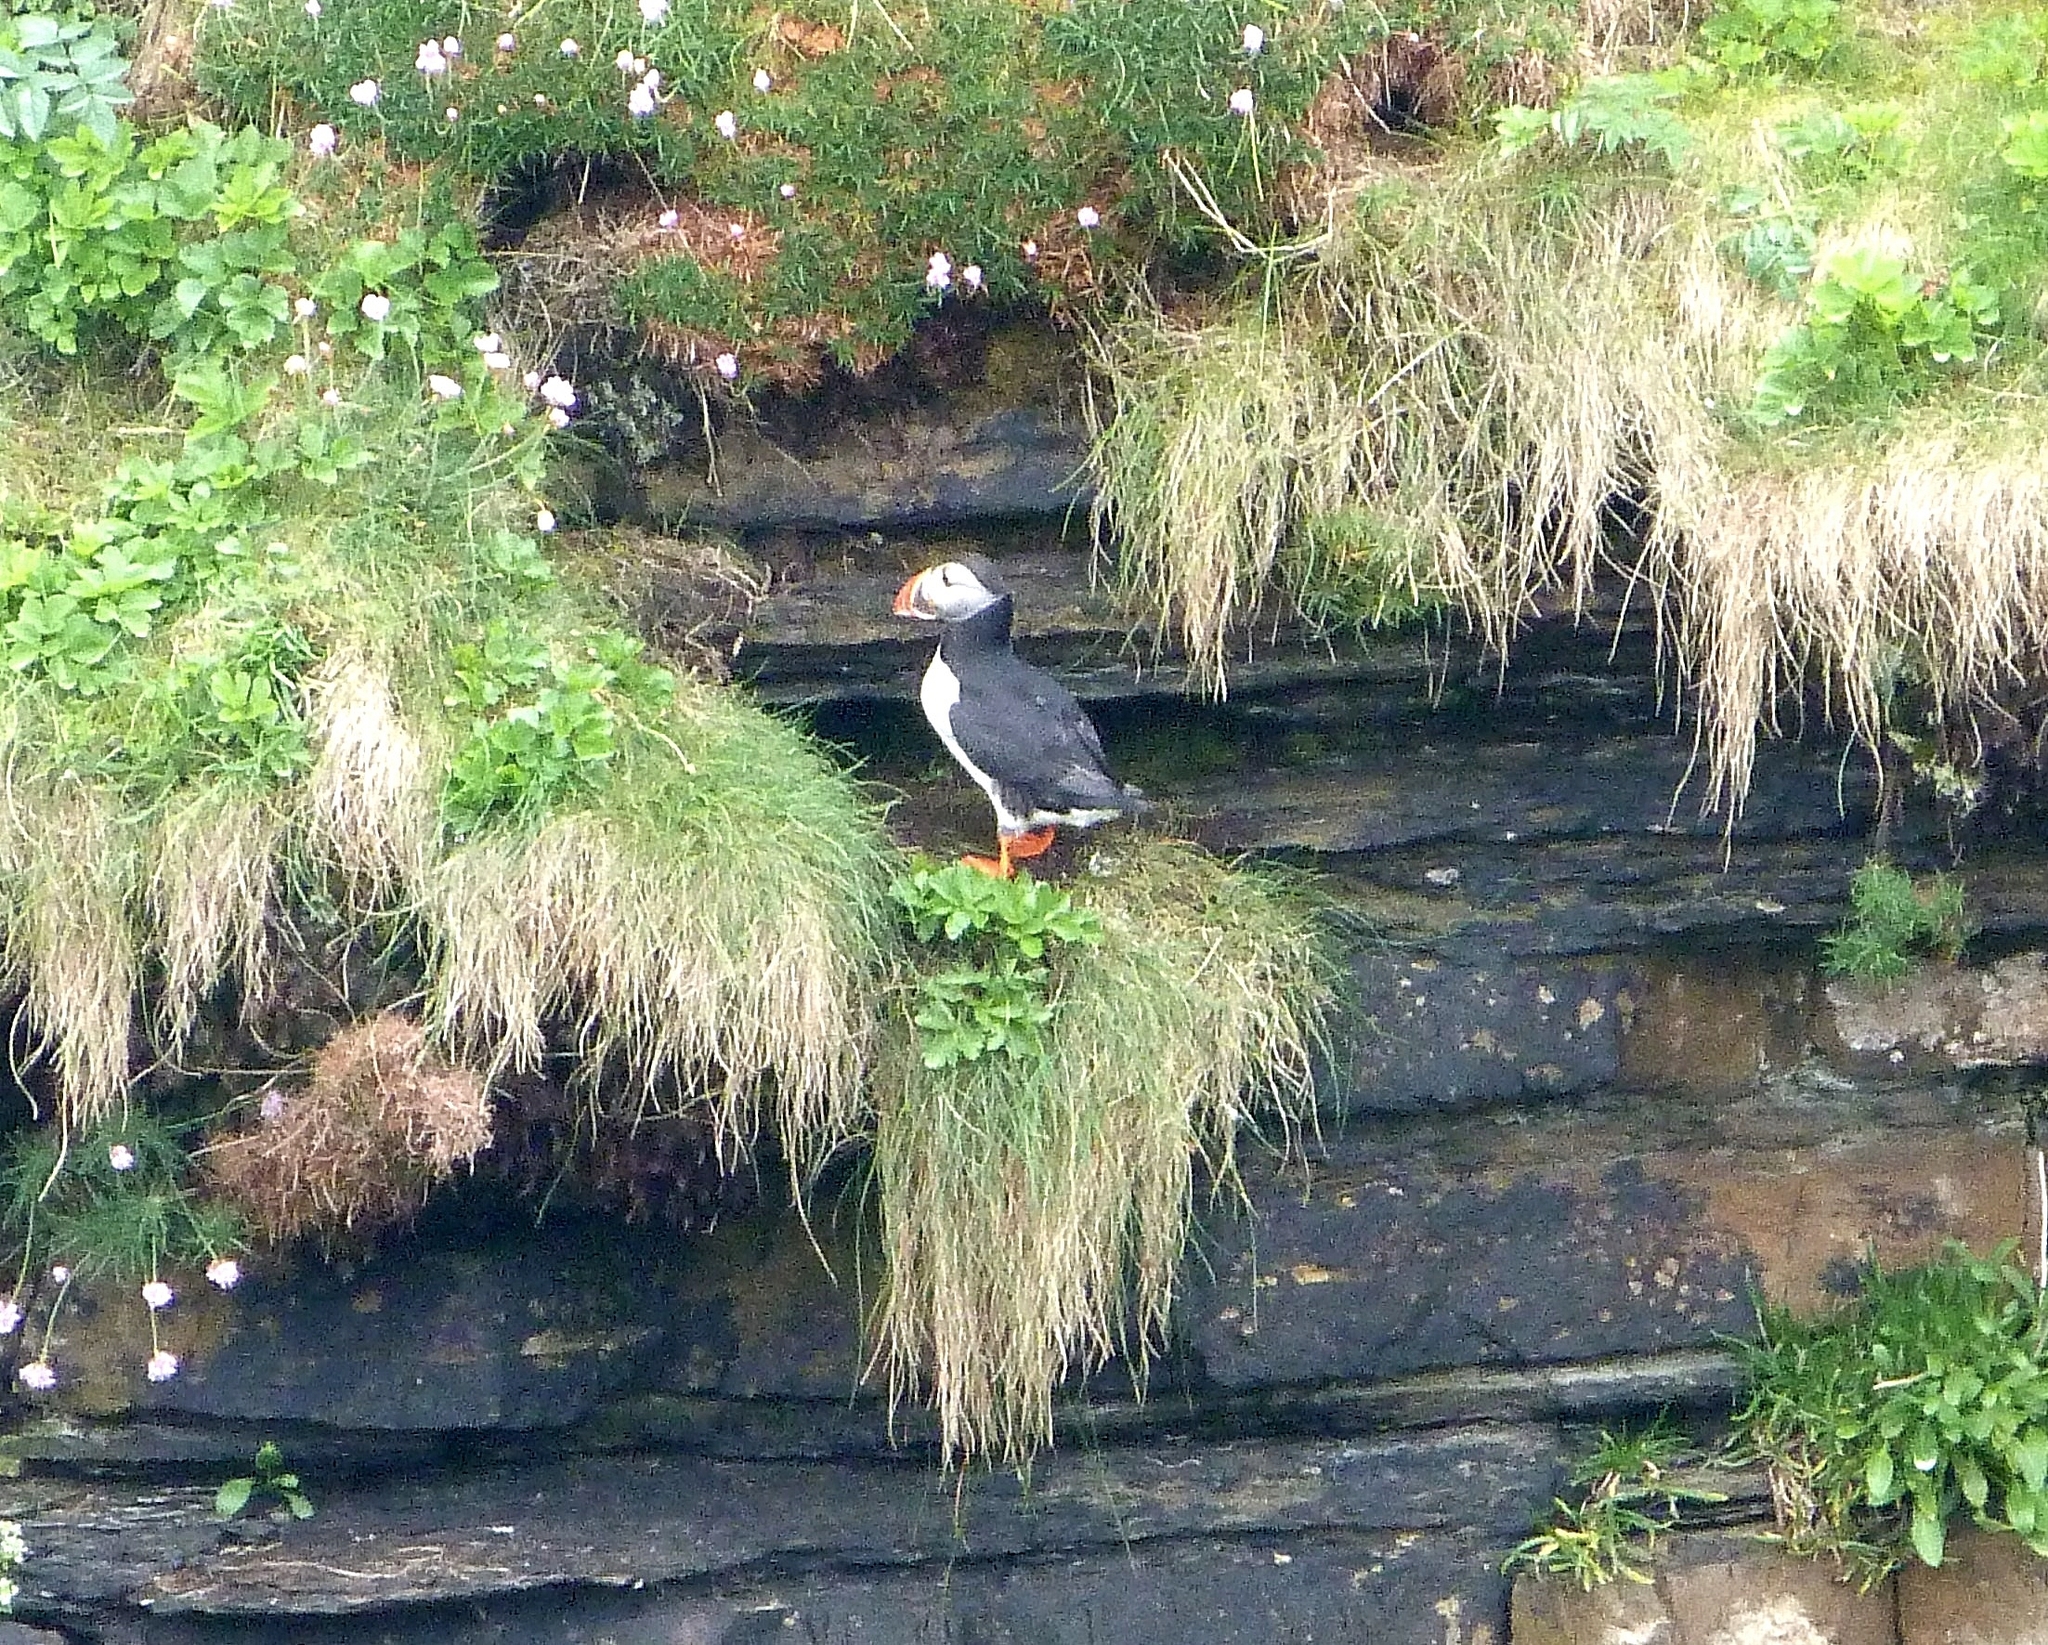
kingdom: Animalia
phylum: Chordata
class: Aves
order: Charadriiformes
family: Alcidae
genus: Fratercula
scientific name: Fratercula arctica
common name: Atlantic puffin
